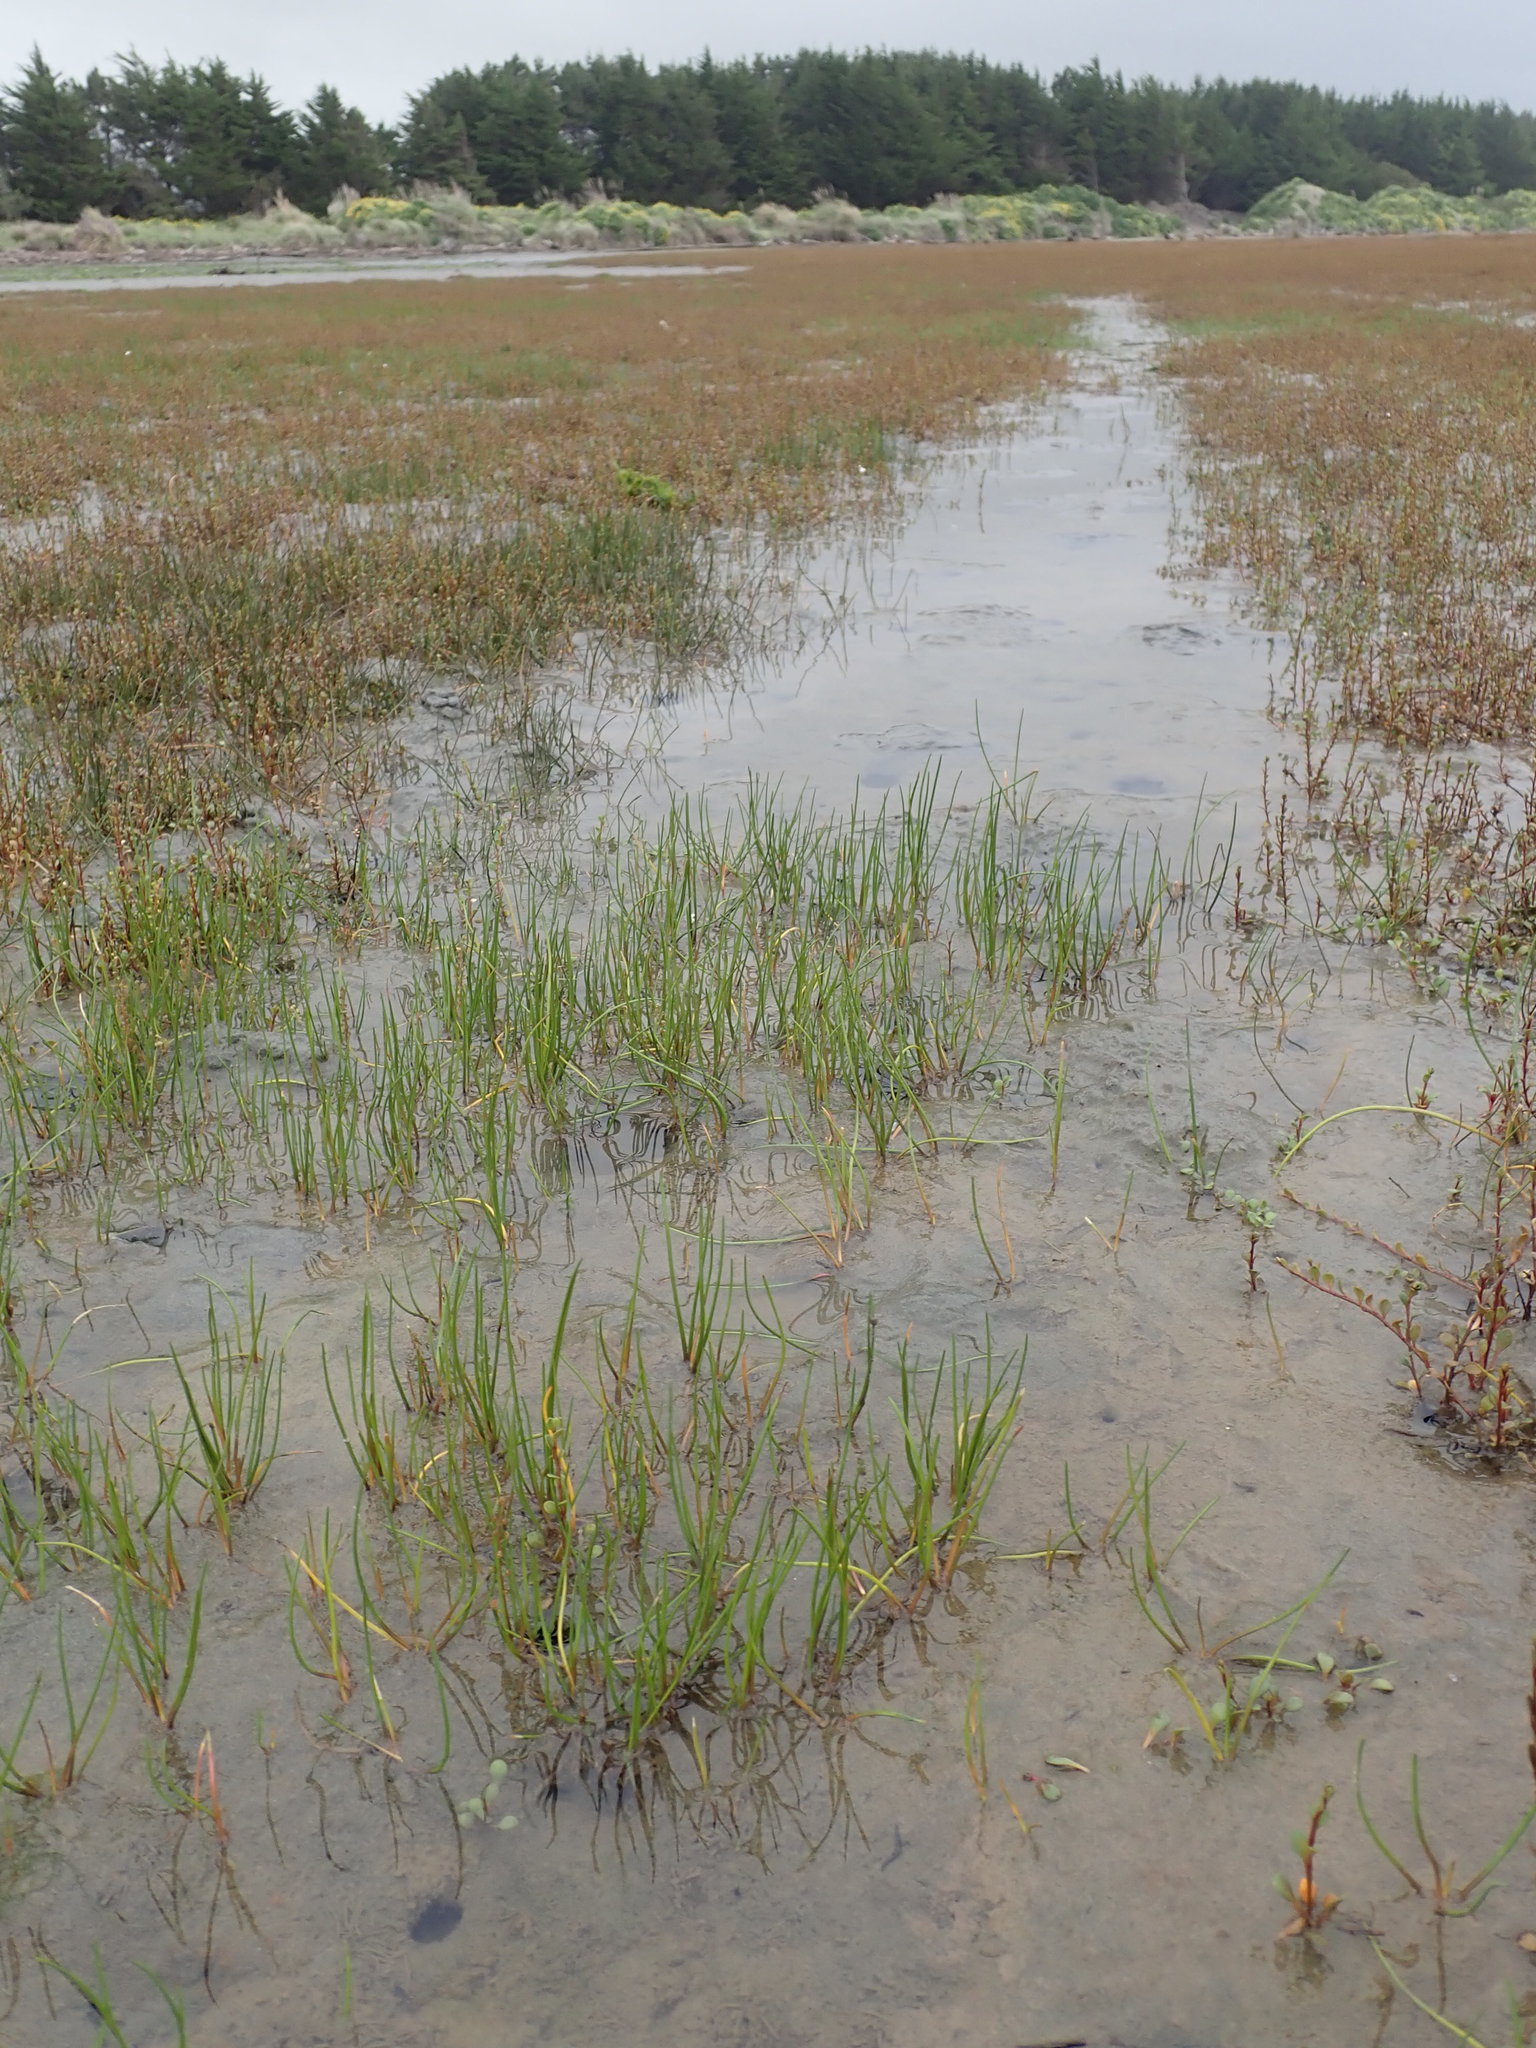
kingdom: Plantae
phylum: Tracheophyta
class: Liliopsida
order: Alismatales
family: Juncaginaceae
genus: Triglochin
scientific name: Triglochin striata
